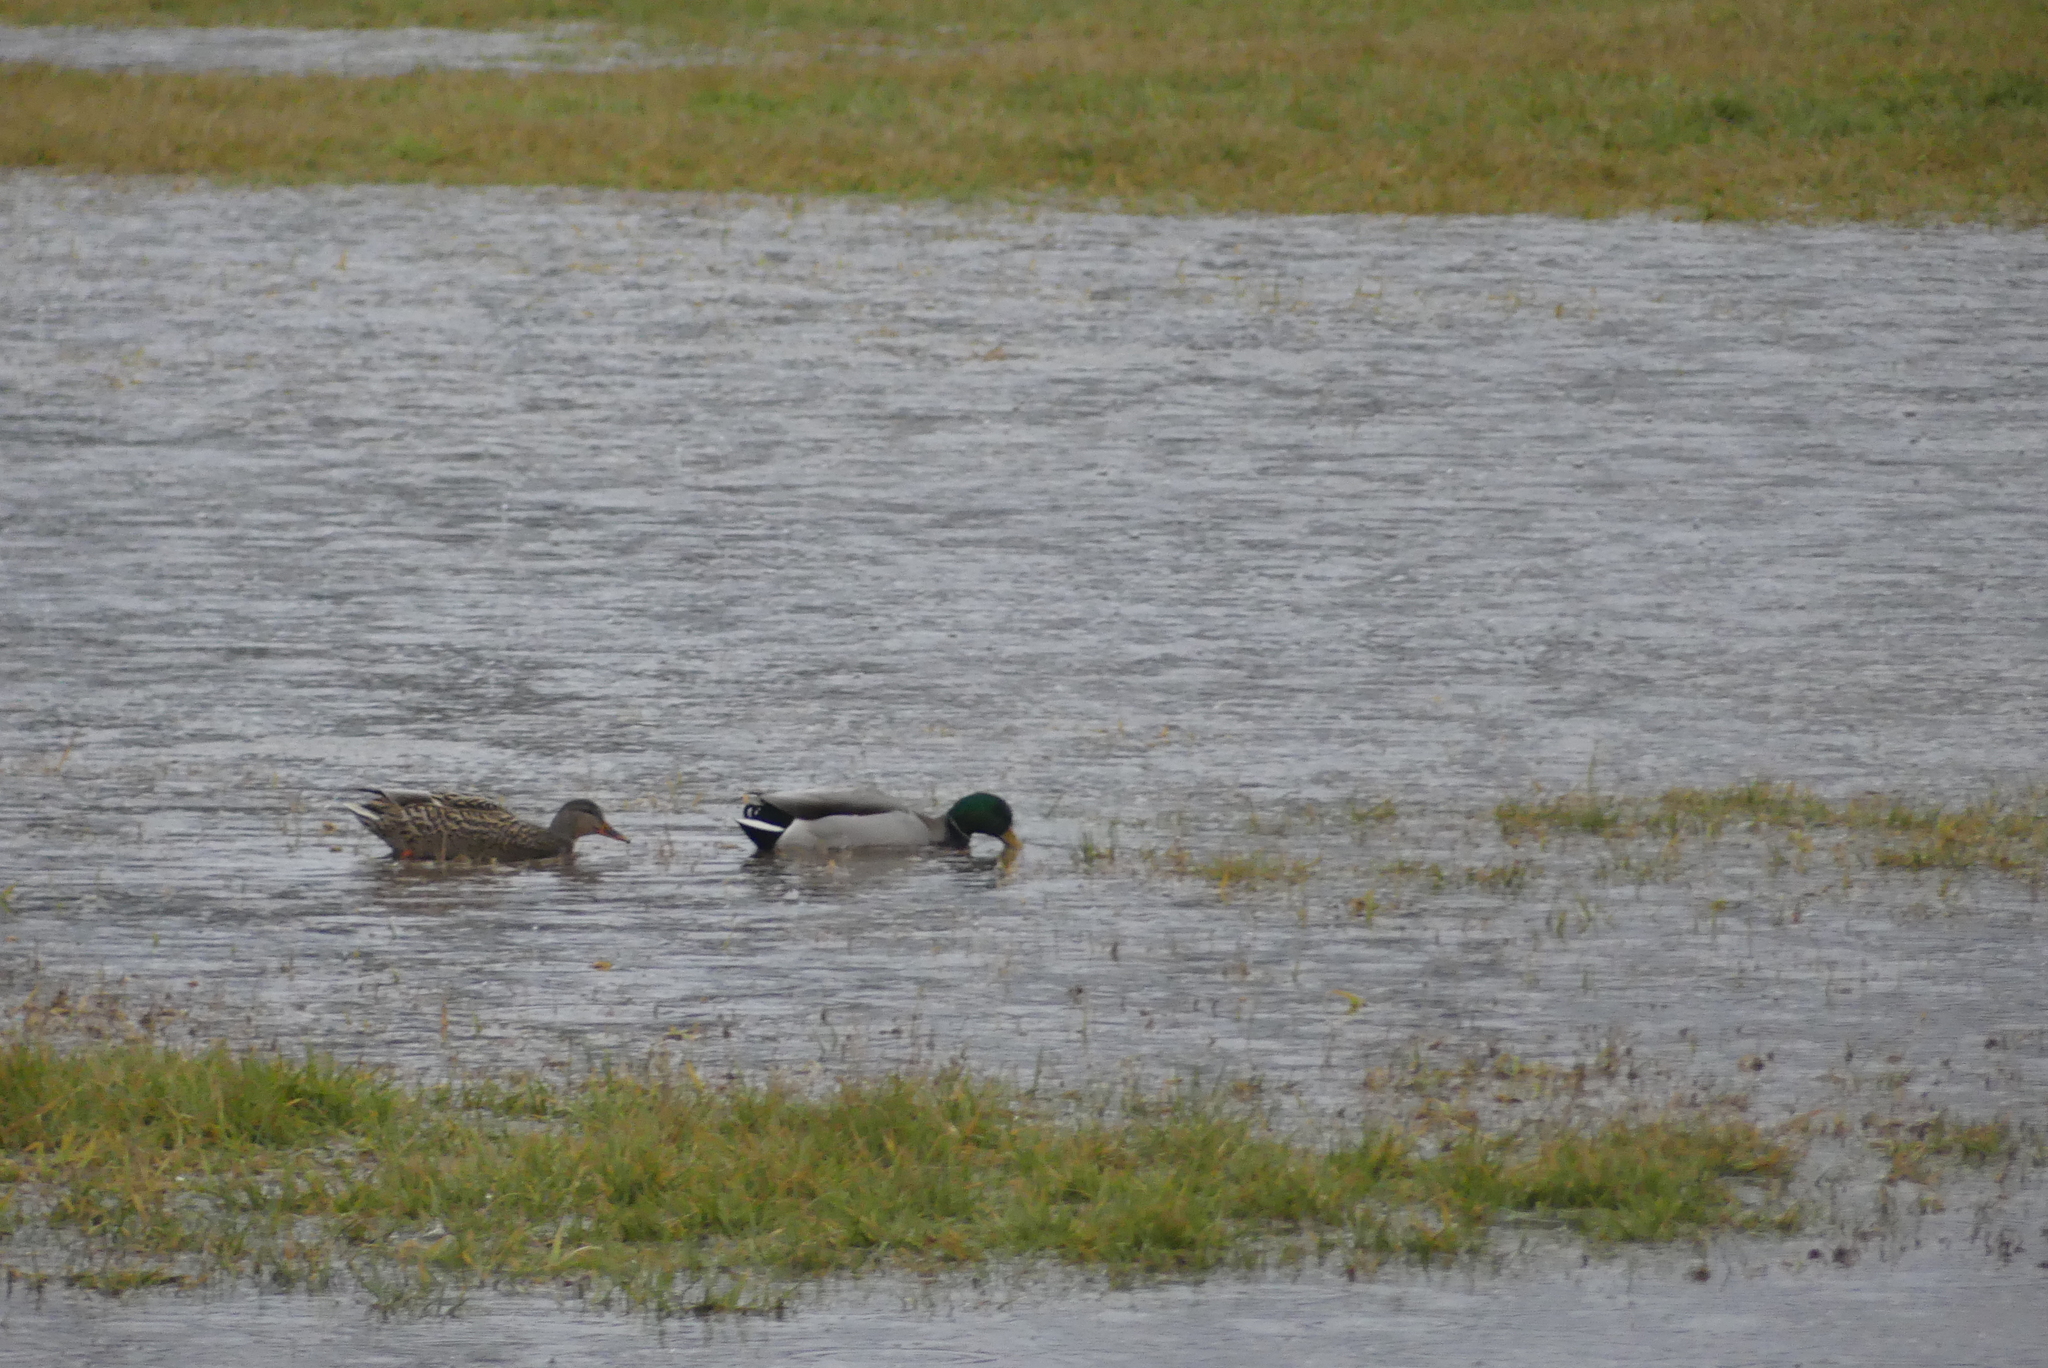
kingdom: Animalia
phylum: Chordata
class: Aves
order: Anseriformes
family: Anatidae
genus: Anas
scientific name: Anas platyrhynchos
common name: Mallard
